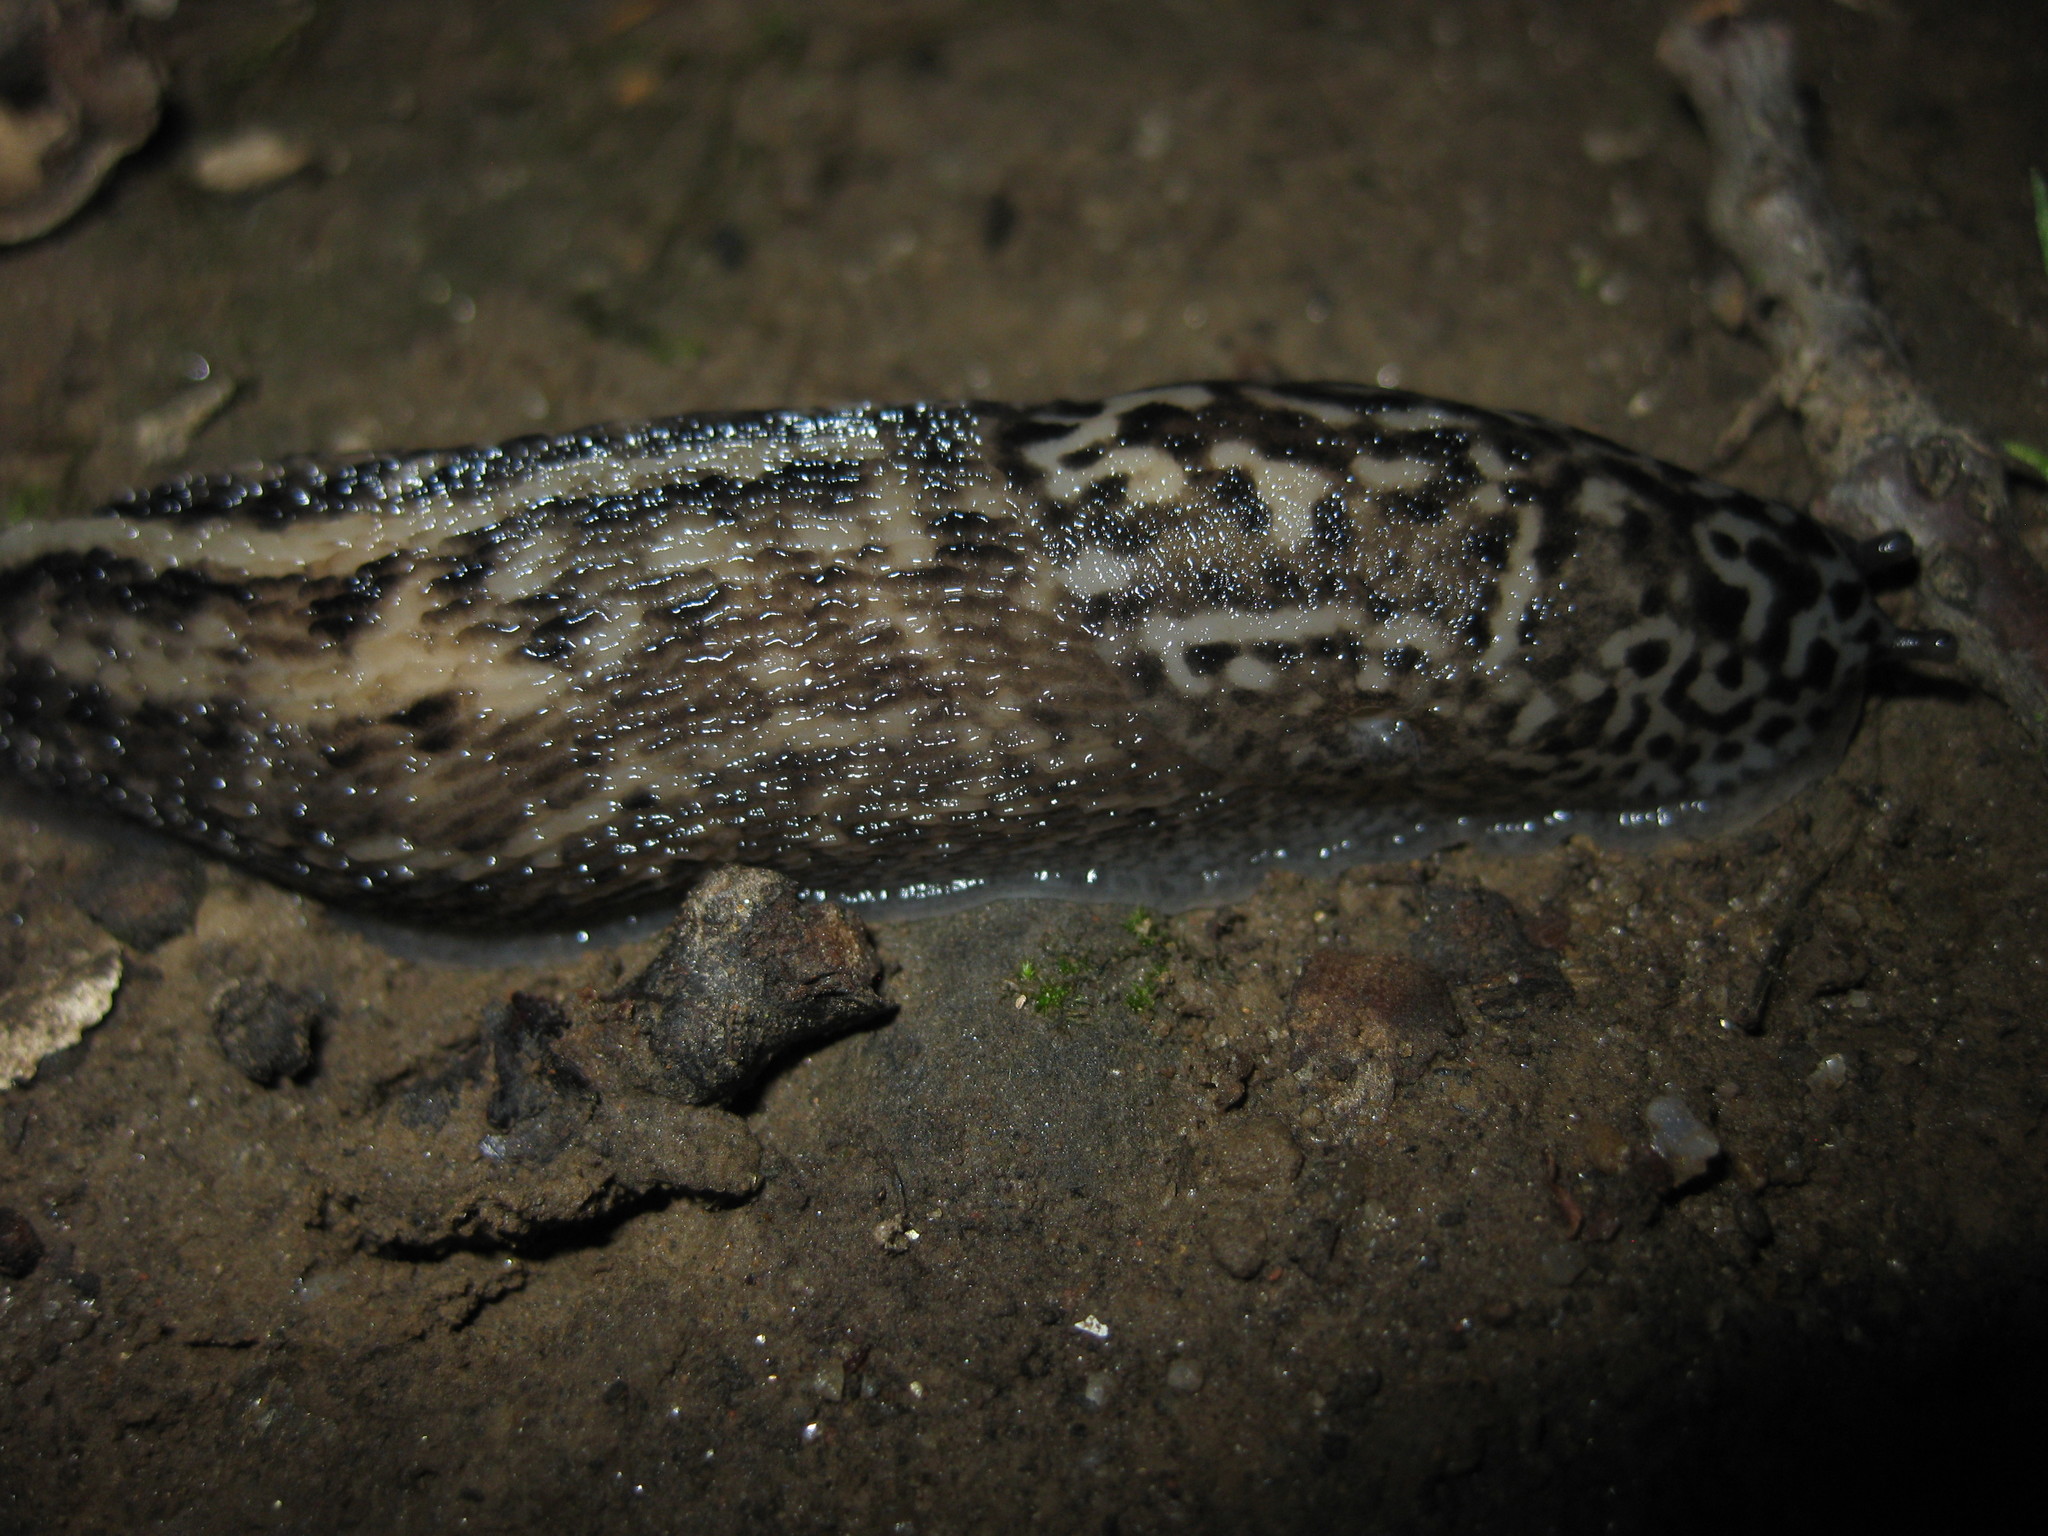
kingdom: Animalia
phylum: Mollusca
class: Gastropoda
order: Stylommatophora
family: Limacidae
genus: Limax
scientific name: Limax maximus
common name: Great grey slug
